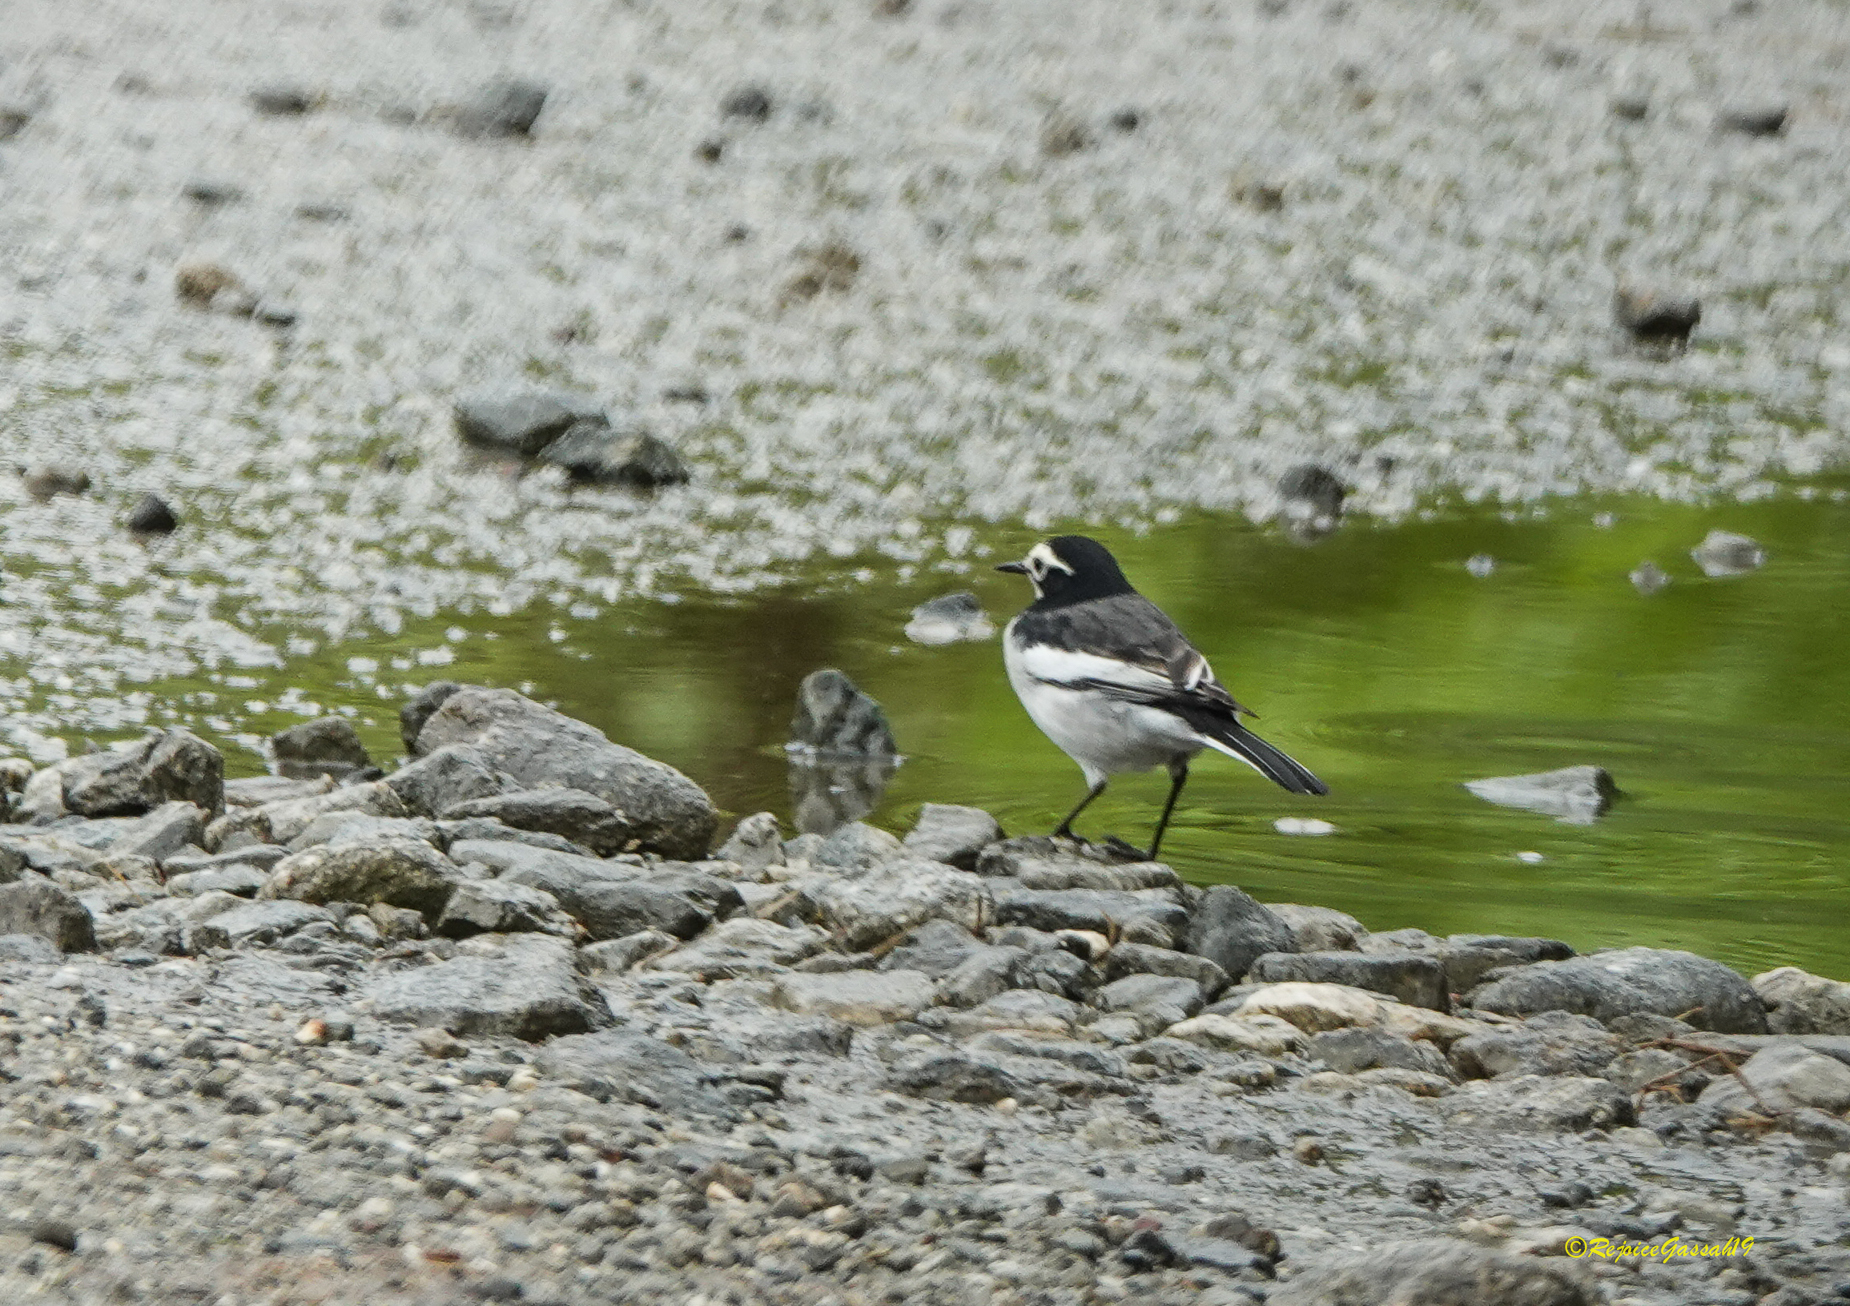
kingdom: Animalia
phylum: Chordata
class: Aves
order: Passeriformes
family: Motacillidae
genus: Motacilla
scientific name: Motacilla alba
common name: White wagtail
